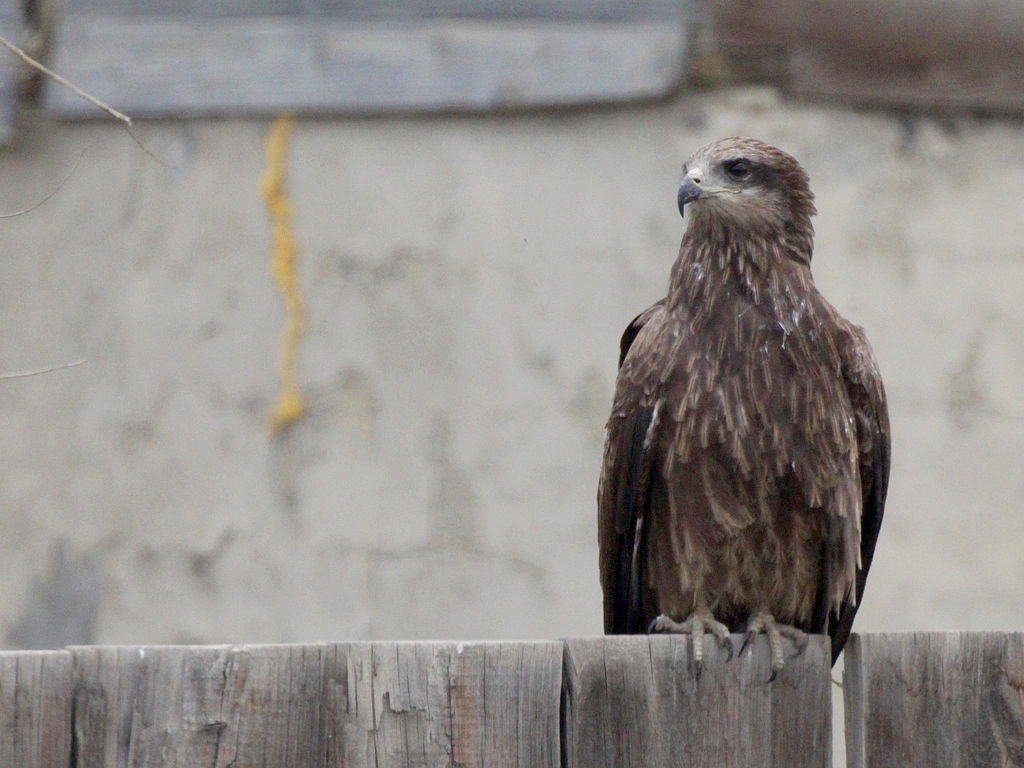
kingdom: Animalia
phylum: Chordata
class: Aves
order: Accipitriformes
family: Accipitridae
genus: Milvus
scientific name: Milvus migrans
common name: Black kite
